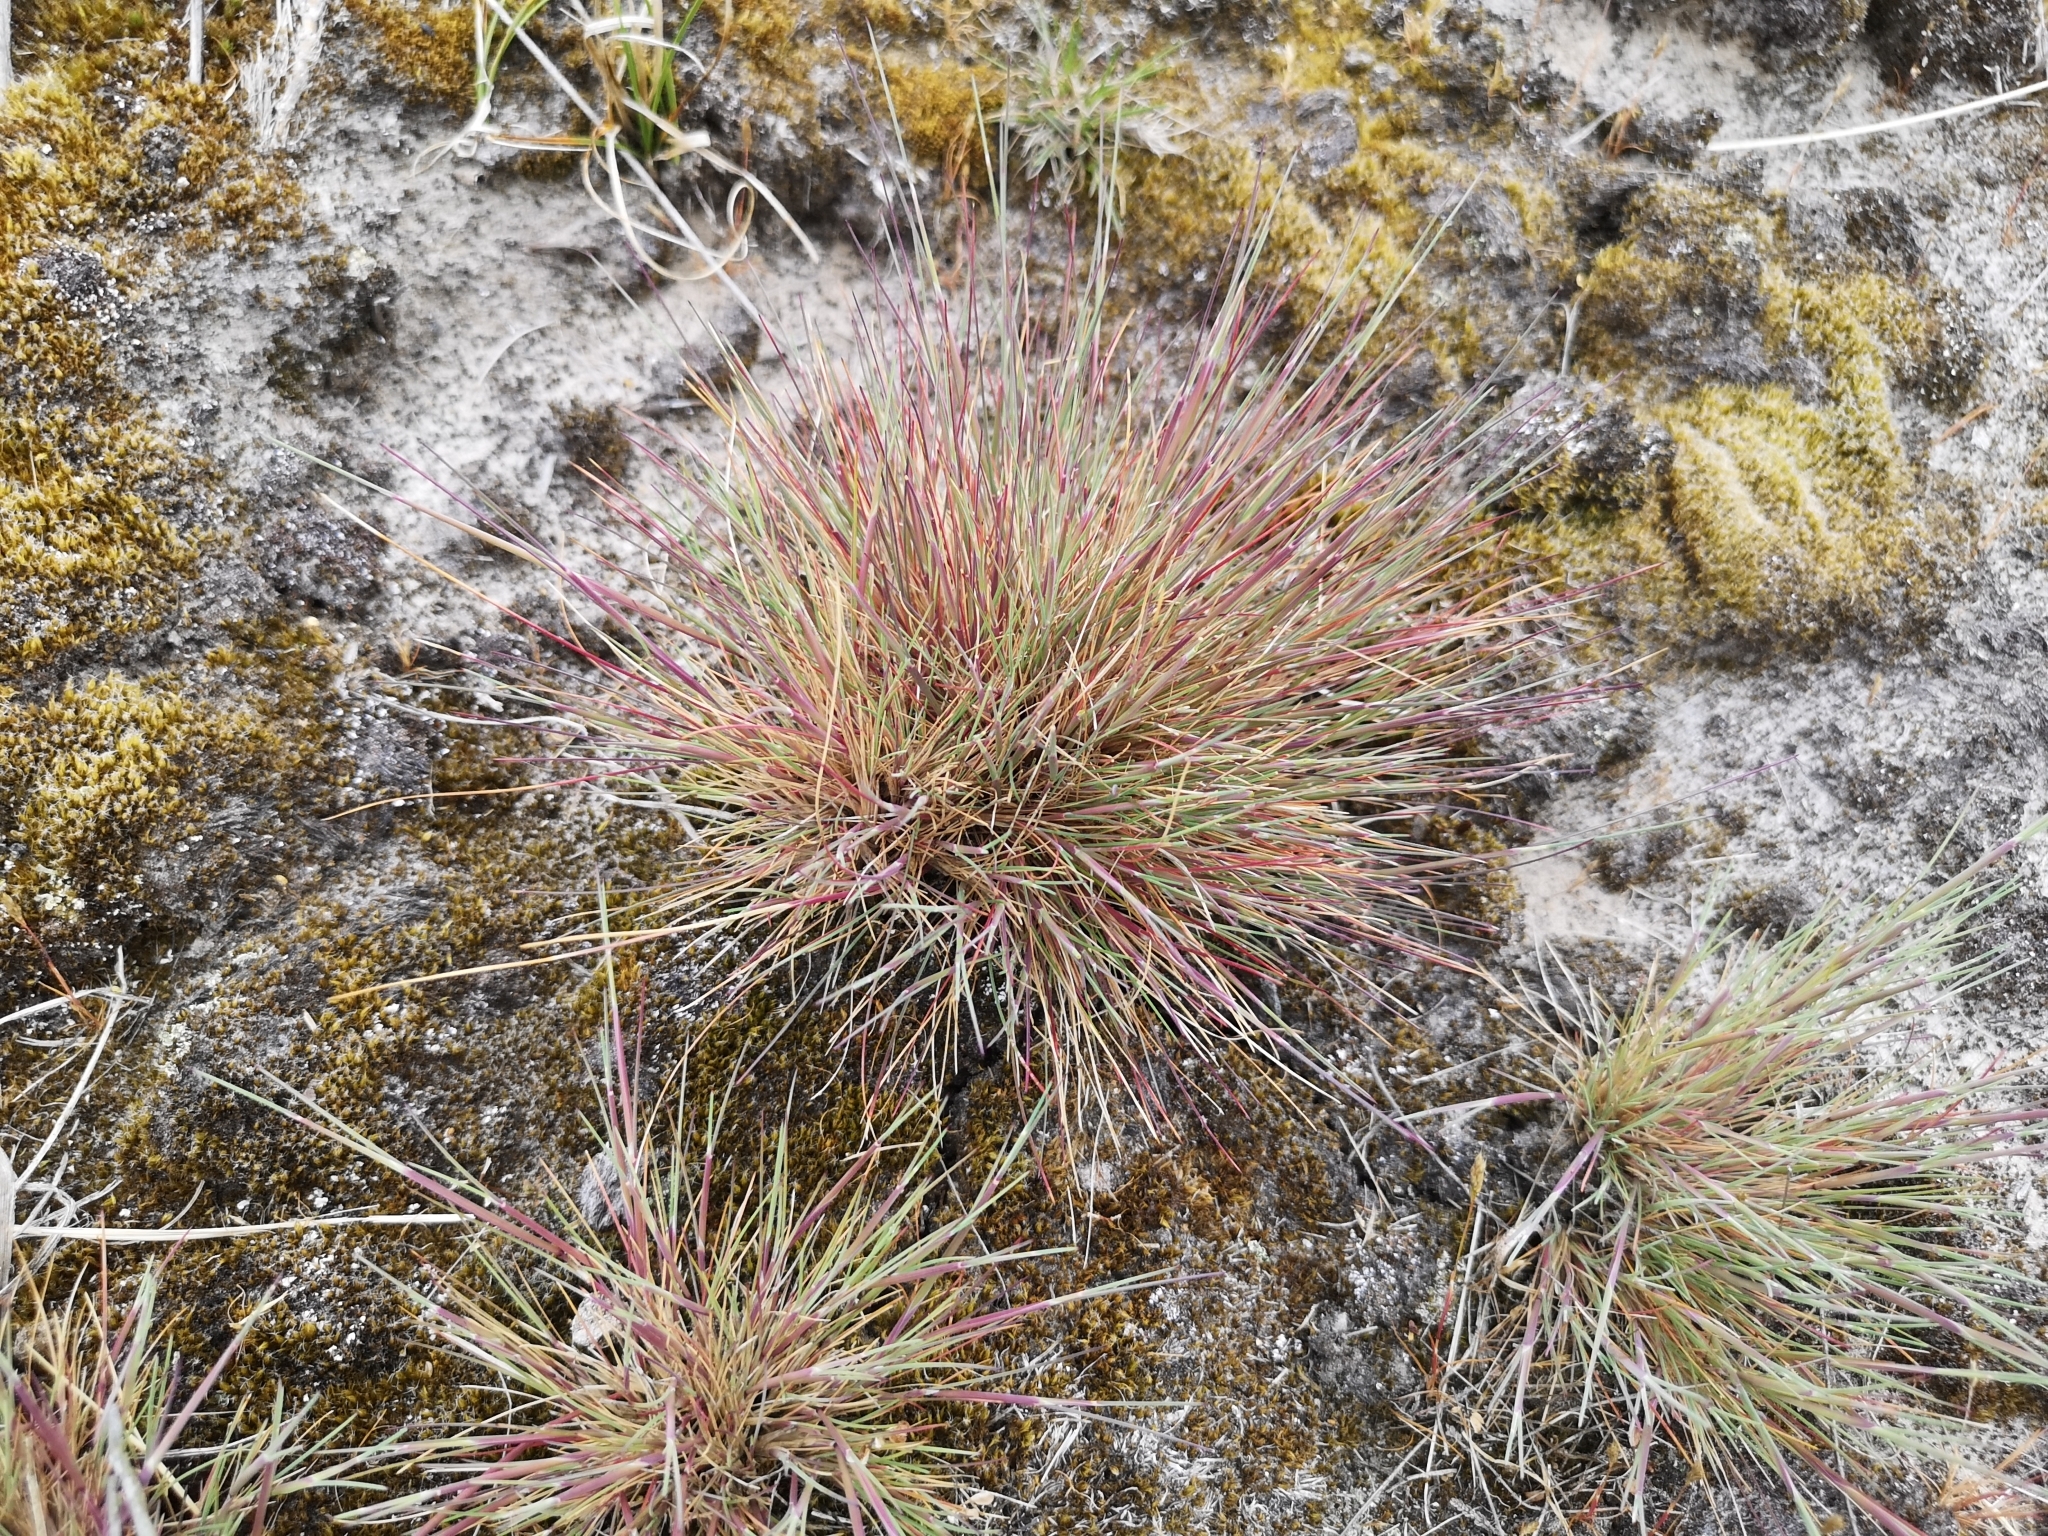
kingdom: Plantae
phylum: Tracheophyta
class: Liliopsida
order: Poales
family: Poaceae
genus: Corynephorus
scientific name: Corynephorus canescens
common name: Grey hair-grass
